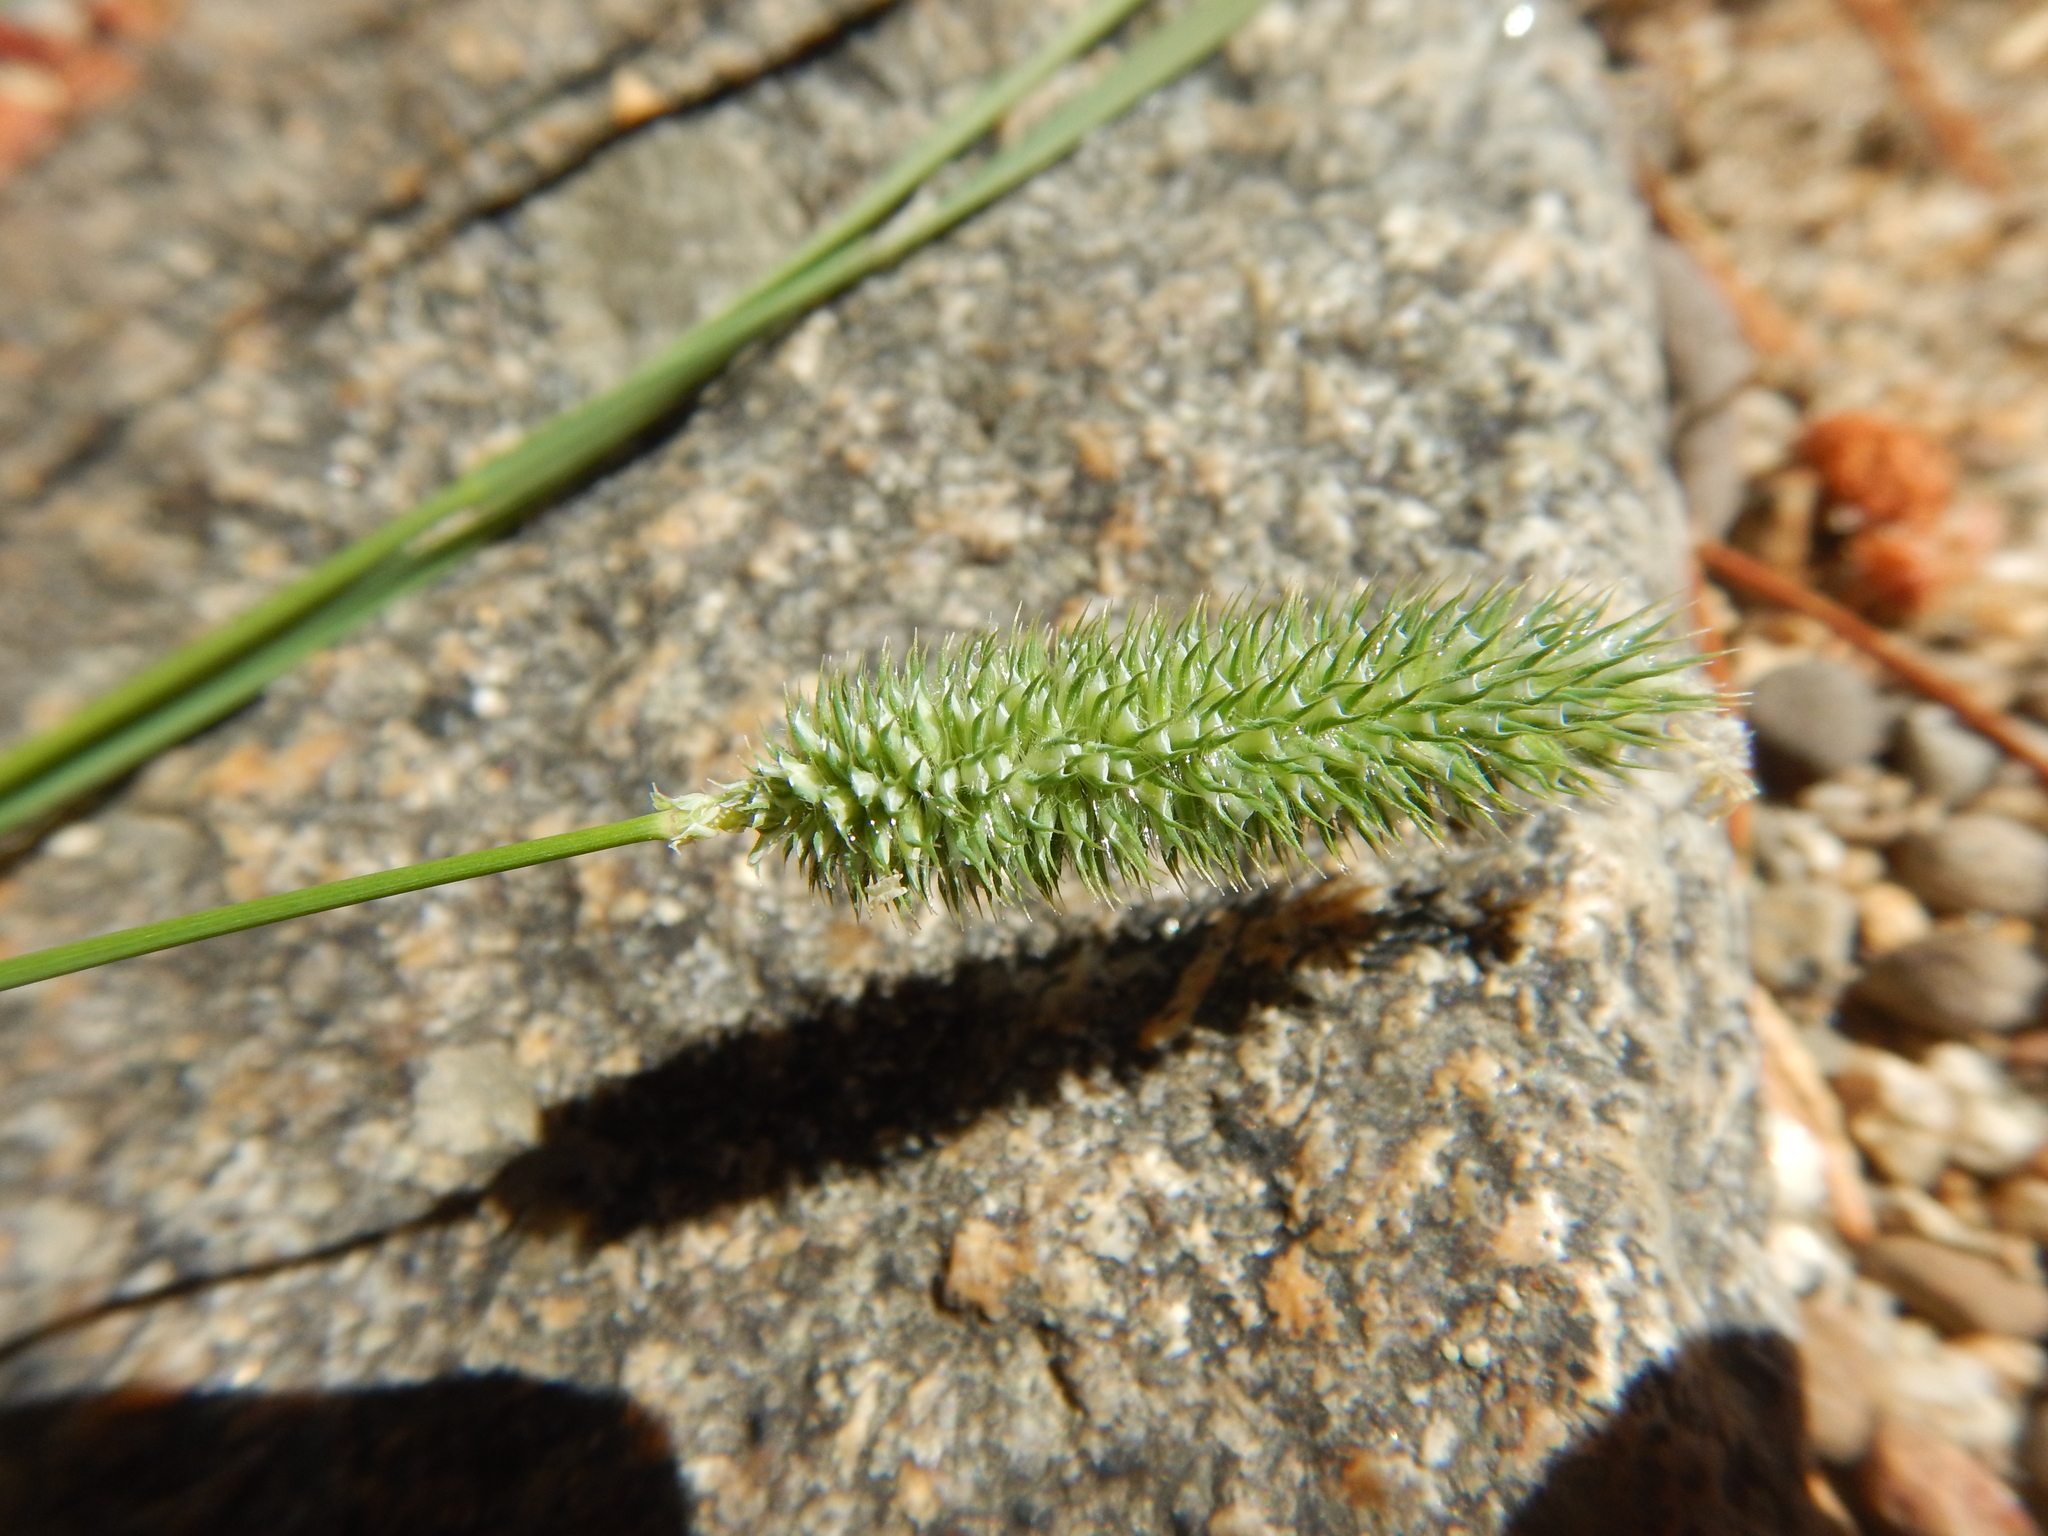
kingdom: Plantae
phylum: Tracheophyta
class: Liliopsida
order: Poales
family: Poaceae
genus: Phleum
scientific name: Phleum pratense
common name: Timothy grass
